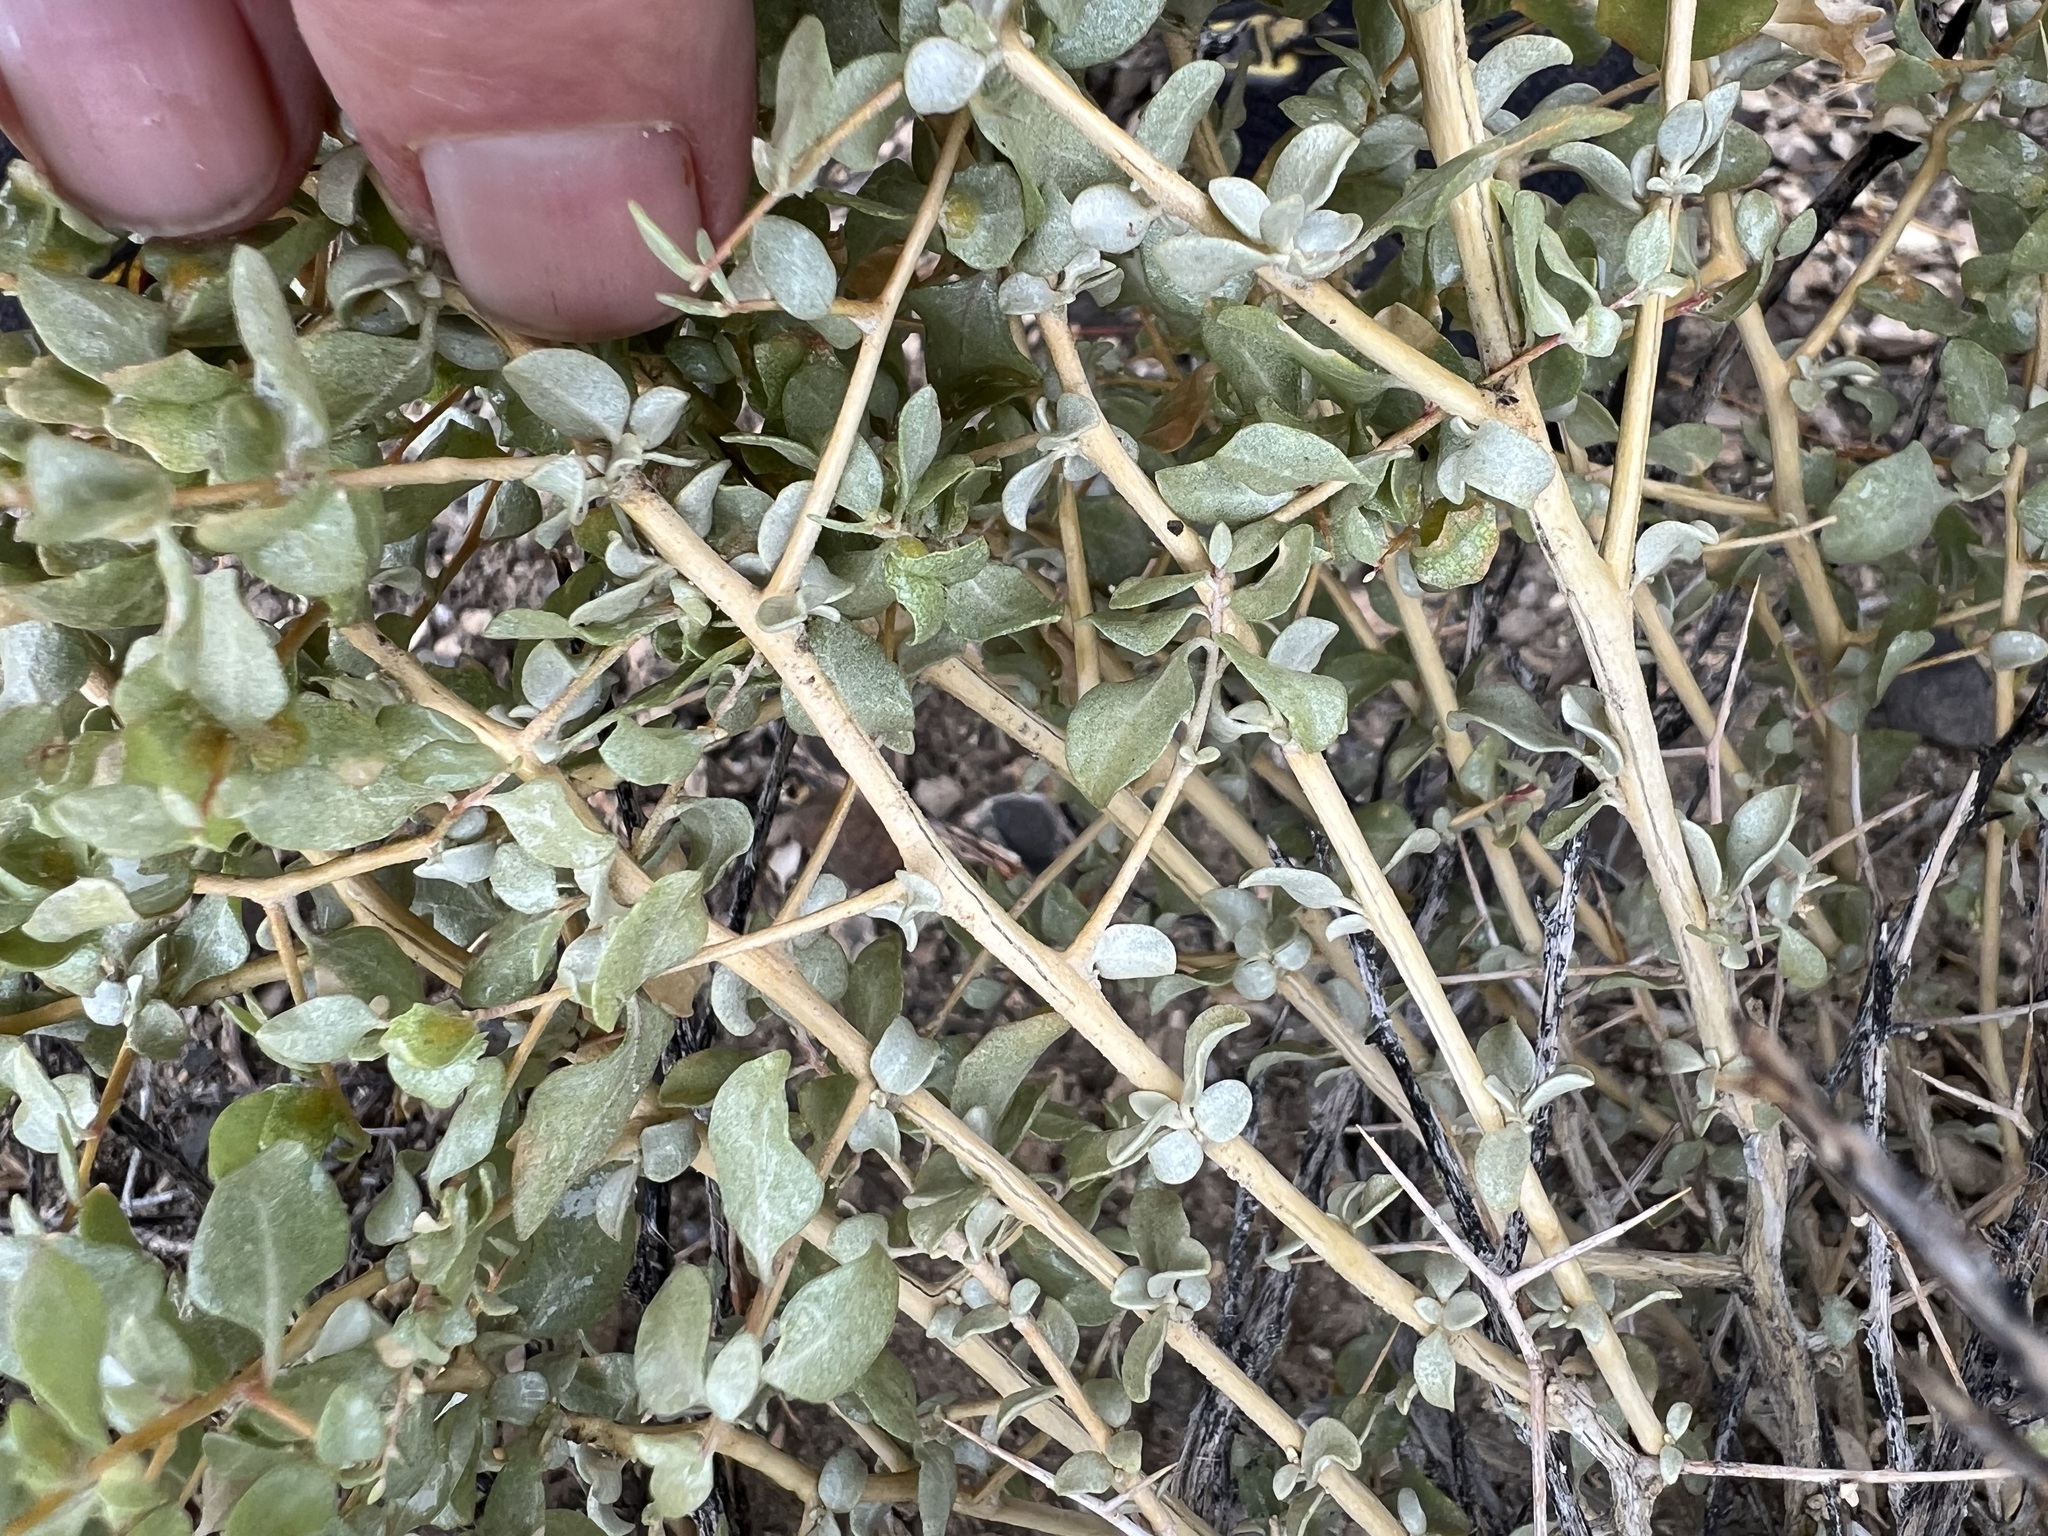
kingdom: Plantae
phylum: Tracheophyta
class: Magnoliopsida
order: Caryophyllales
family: Amaranthaceae
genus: Atriplex
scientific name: Atriplex confertifolia
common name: Shadscale
